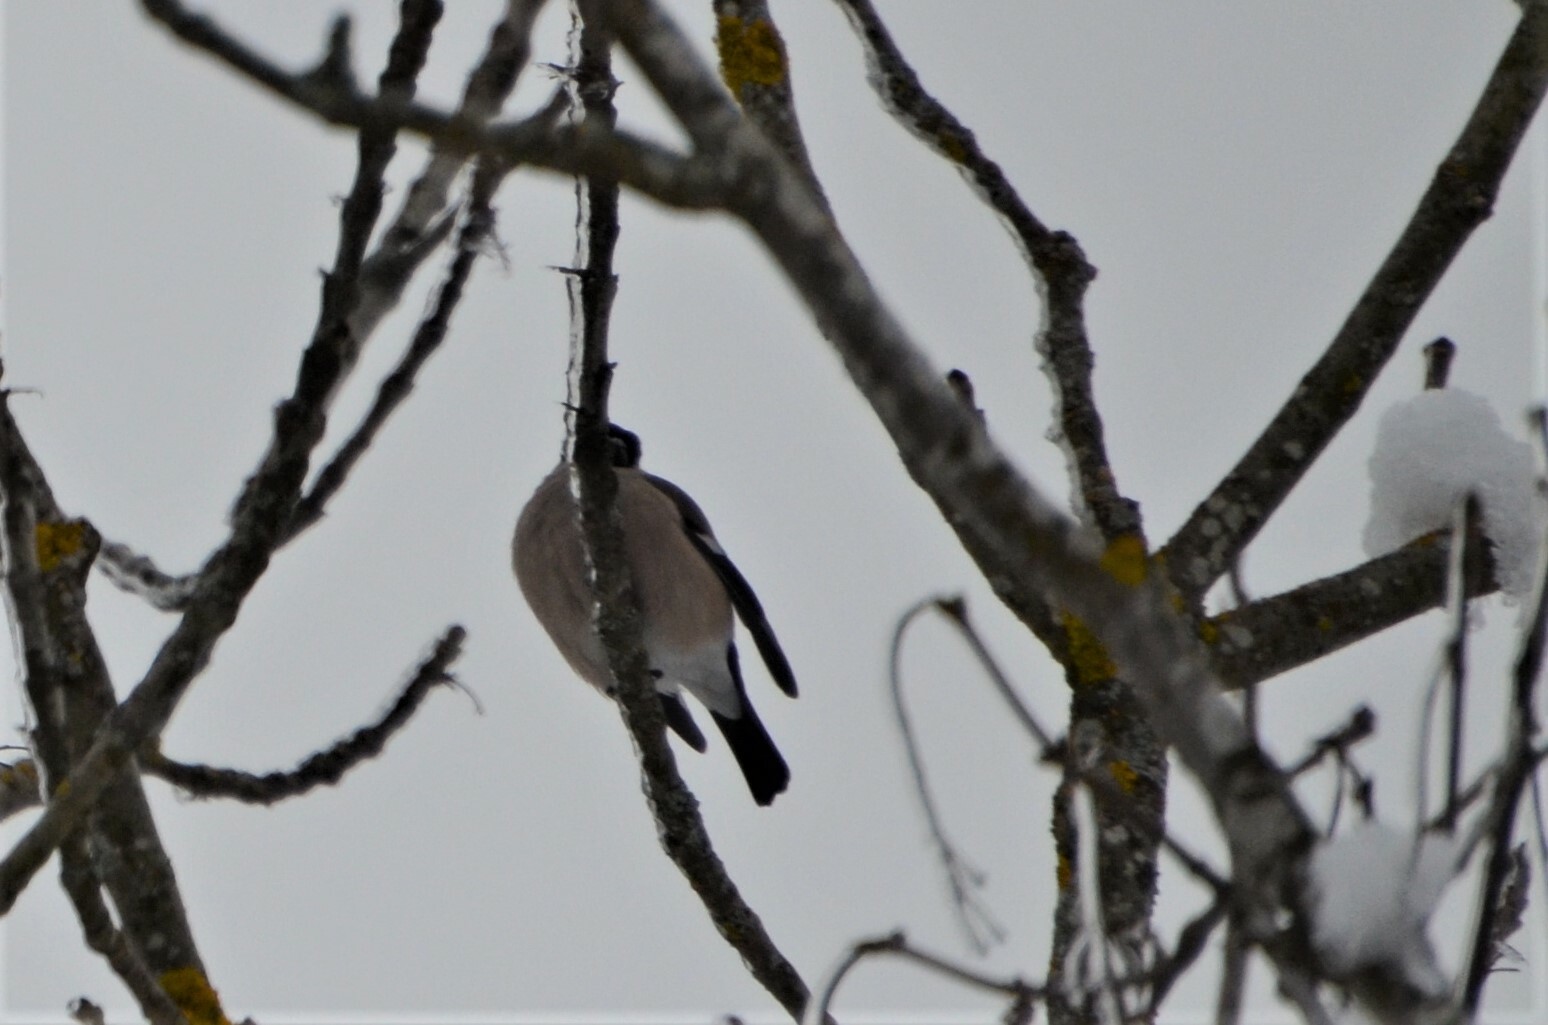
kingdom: Animalia
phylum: Chordata
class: Aves
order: Passeriformes
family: Fringillidae
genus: Pyrrhula
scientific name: Pyrrhula pyrrhula
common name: Eurasian bullfinch
